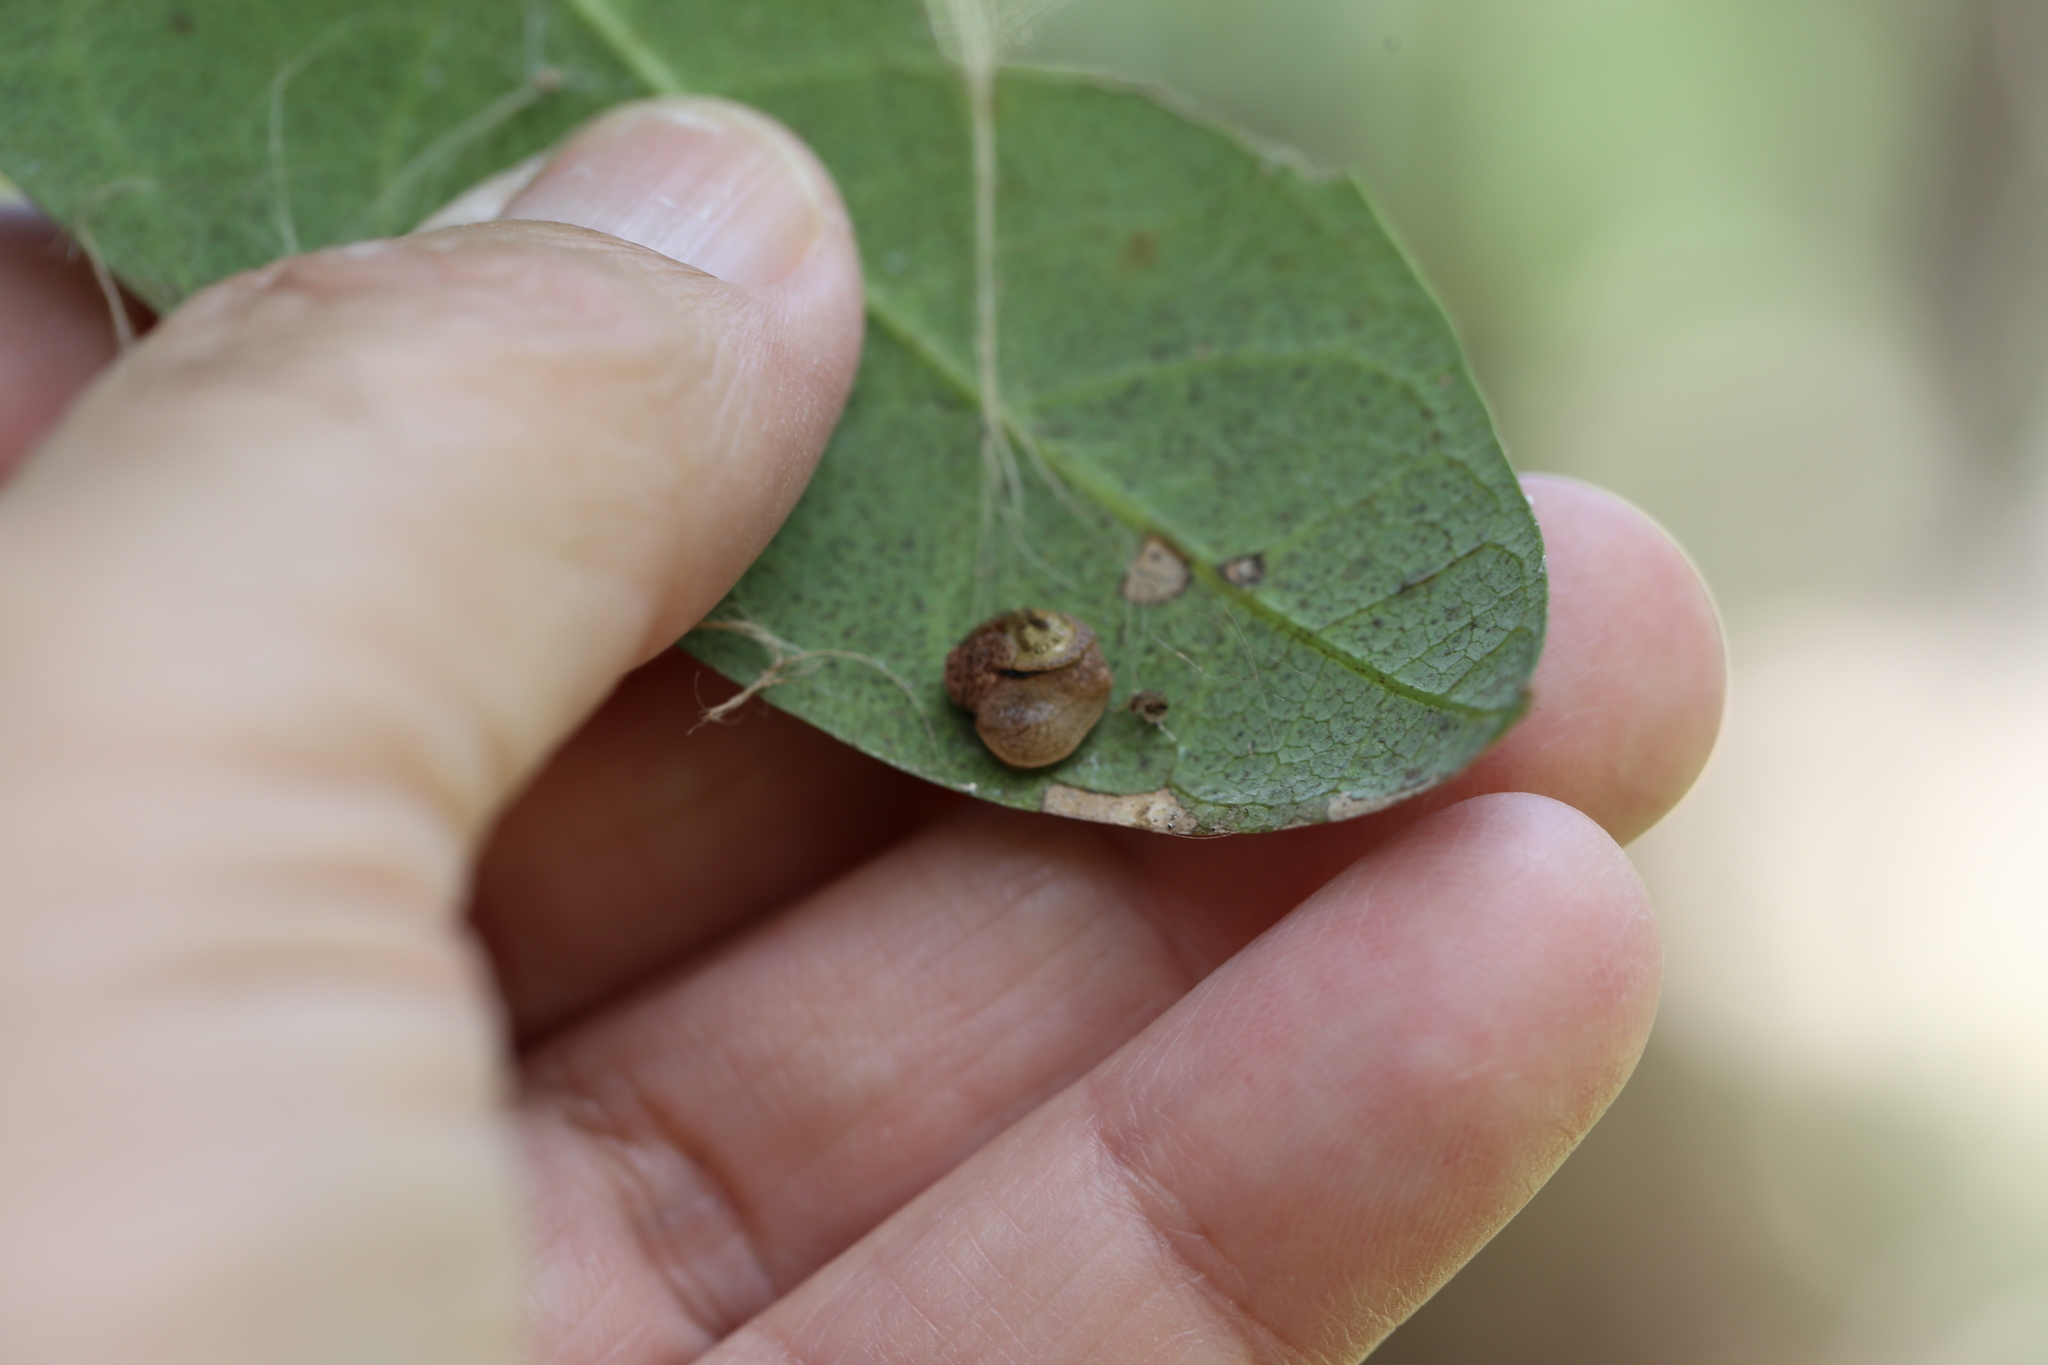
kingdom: Animalia
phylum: Mollusca
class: Gastropoda
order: Stylommatophora
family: Helicarionidae
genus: Ubiquitarion
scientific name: Ubiquitarion iridis
